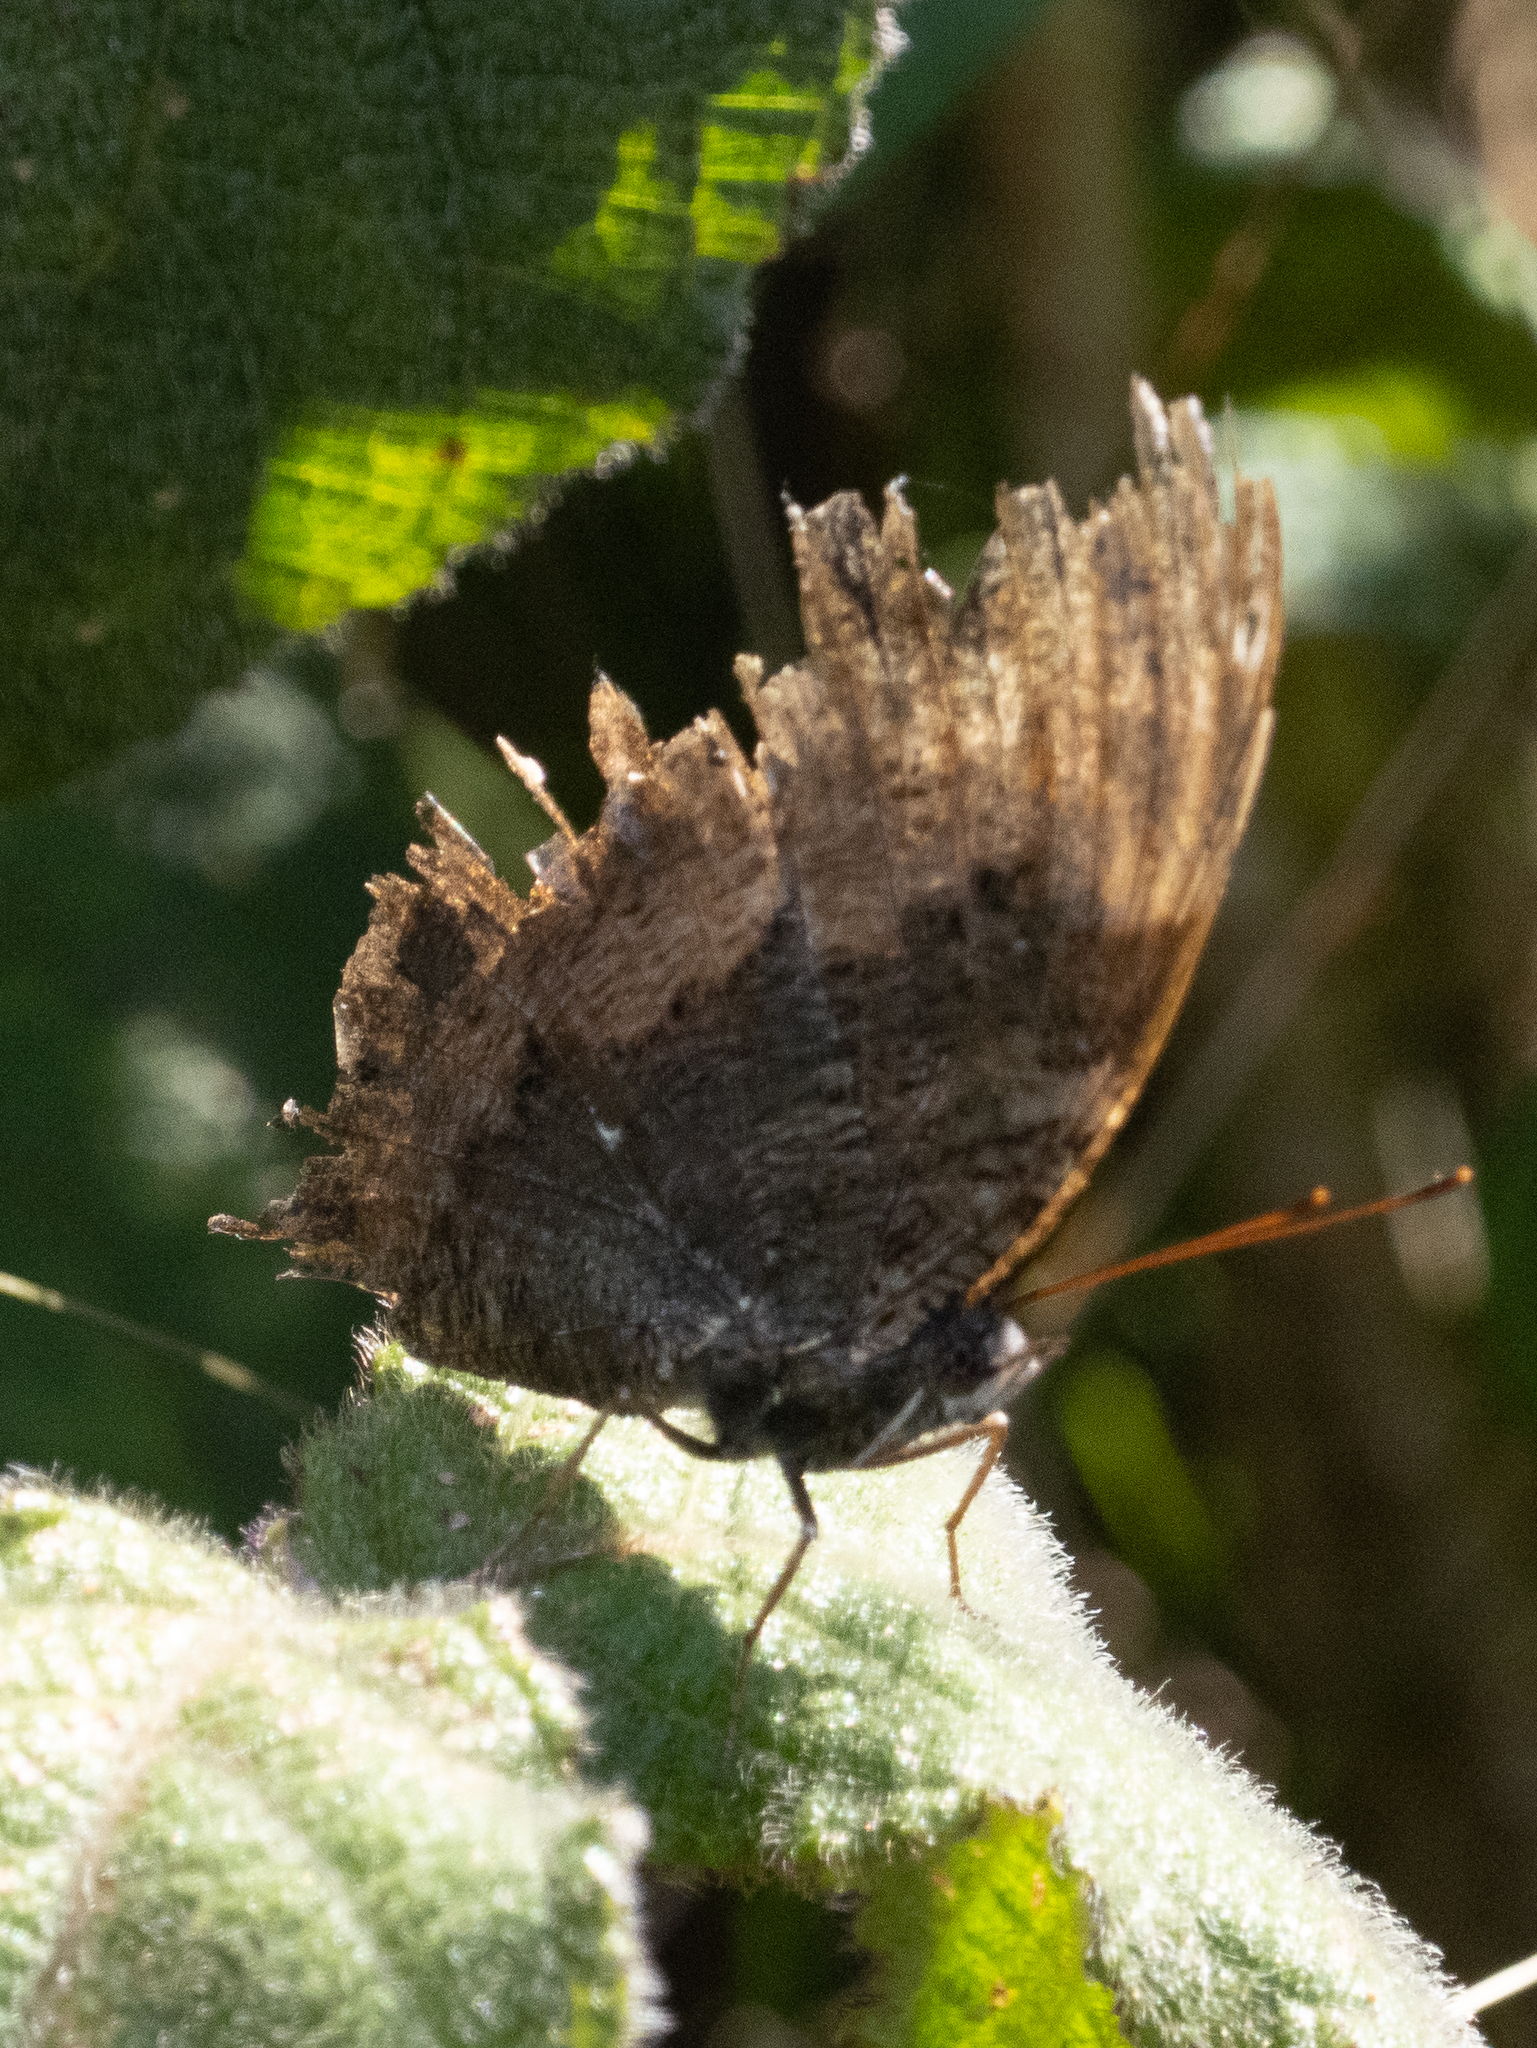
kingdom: Animalia
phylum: Arthropoda
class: Insecta
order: Lepidoptera
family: Nymphalidae
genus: Vanessa
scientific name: Vanessa Kaniska canace
